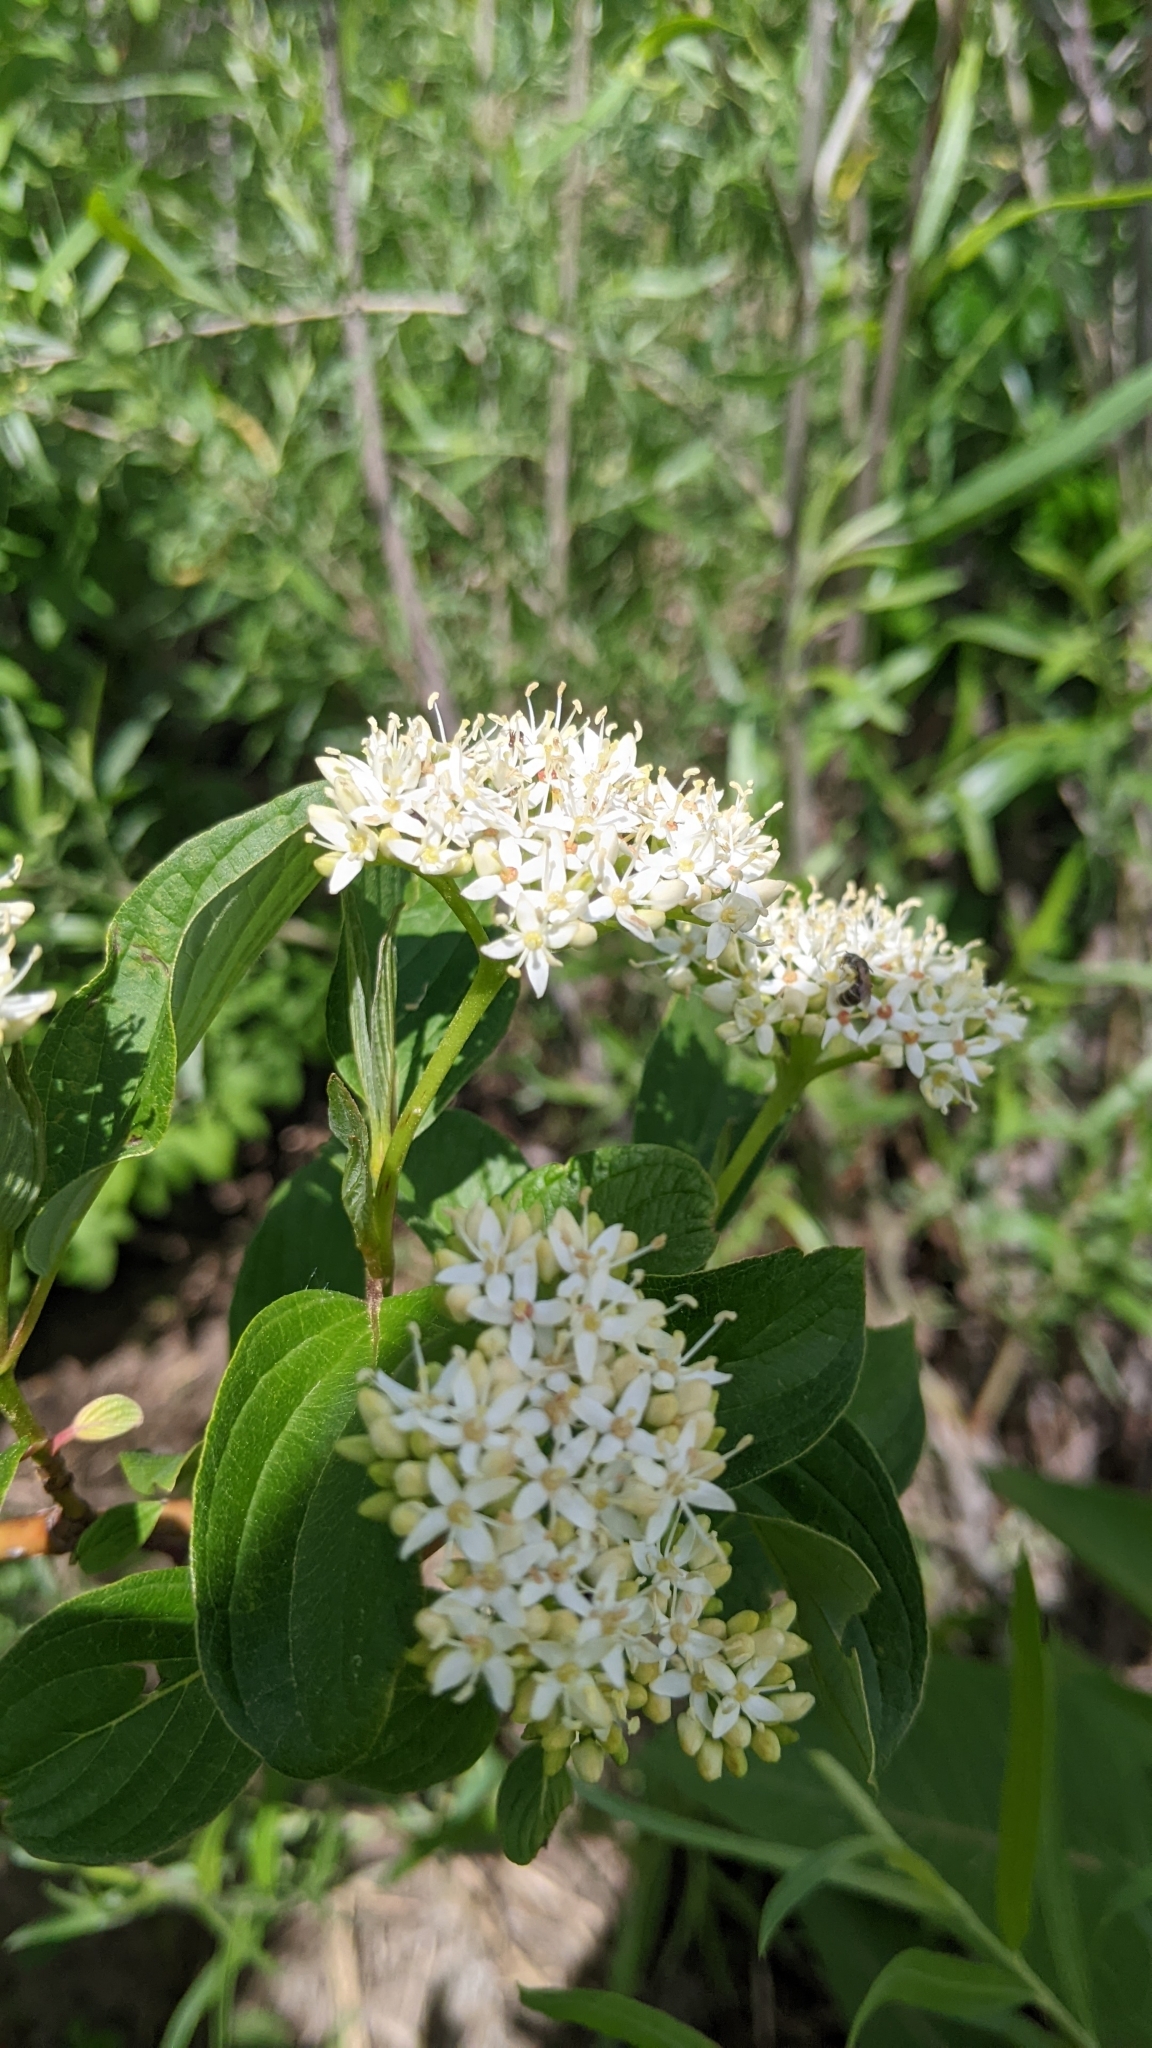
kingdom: Plantae
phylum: Tracheophyta
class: Magnoliopsida
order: Cornales
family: Cornaceae
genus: Cornus
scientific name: Cornus sericea
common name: Red-osier dogwood
